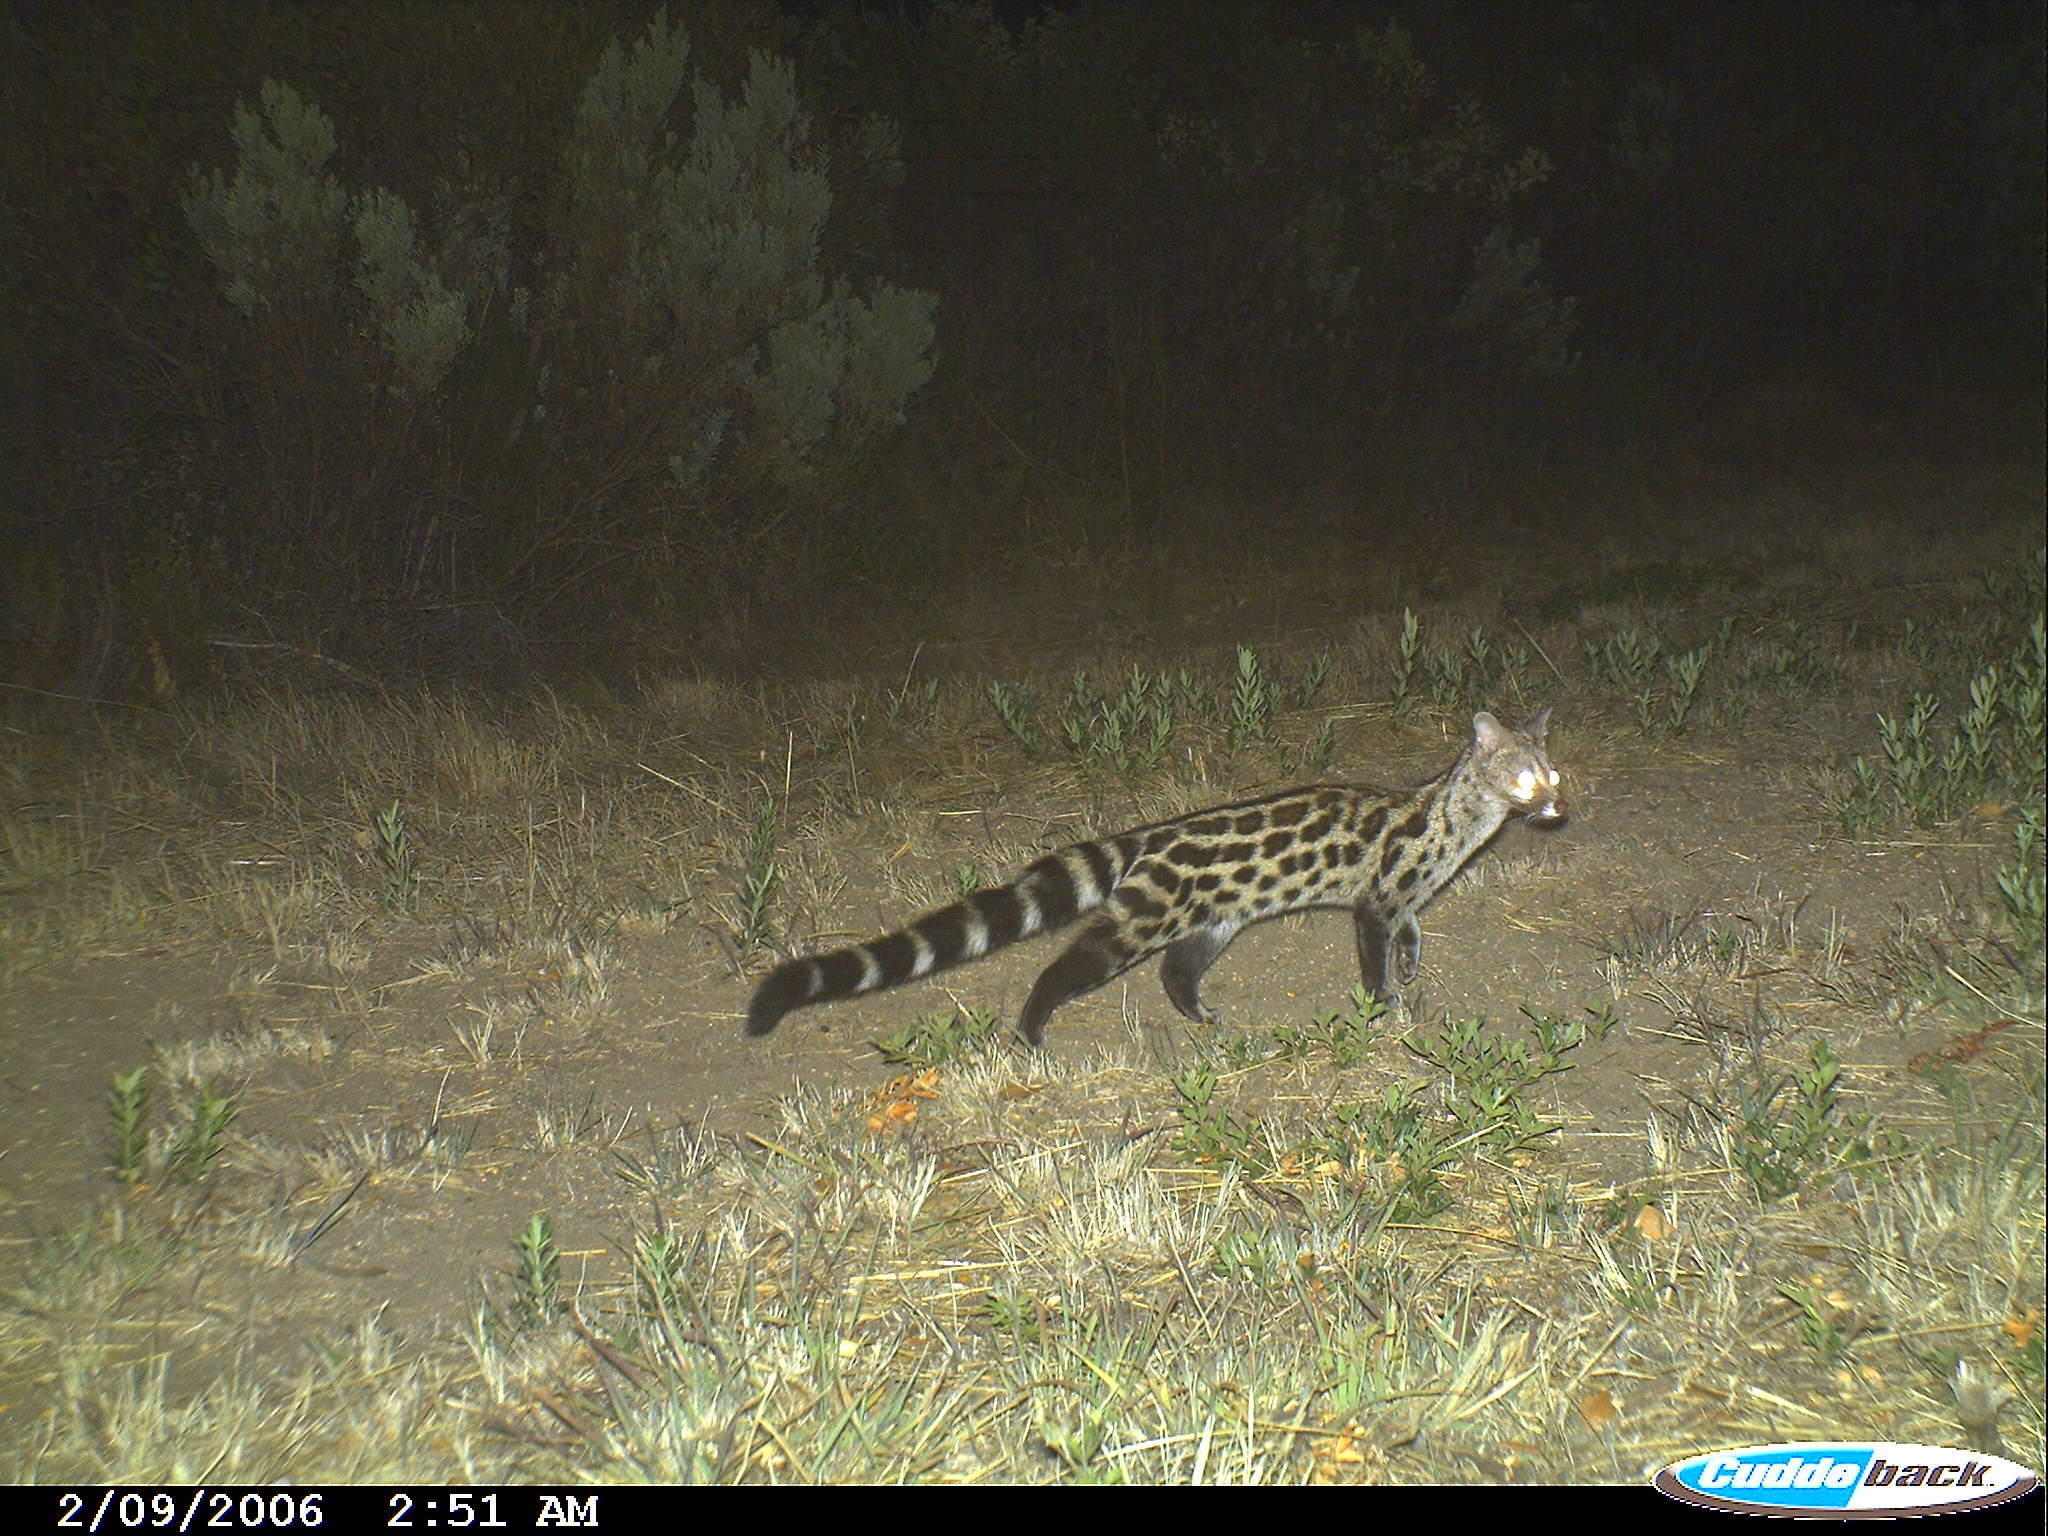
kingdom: Animalia
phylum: Chordata
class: Mammalia
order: Carnivora
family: Viverridae
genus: Genetta
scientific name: Genetta tigrina
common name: Cape genet
